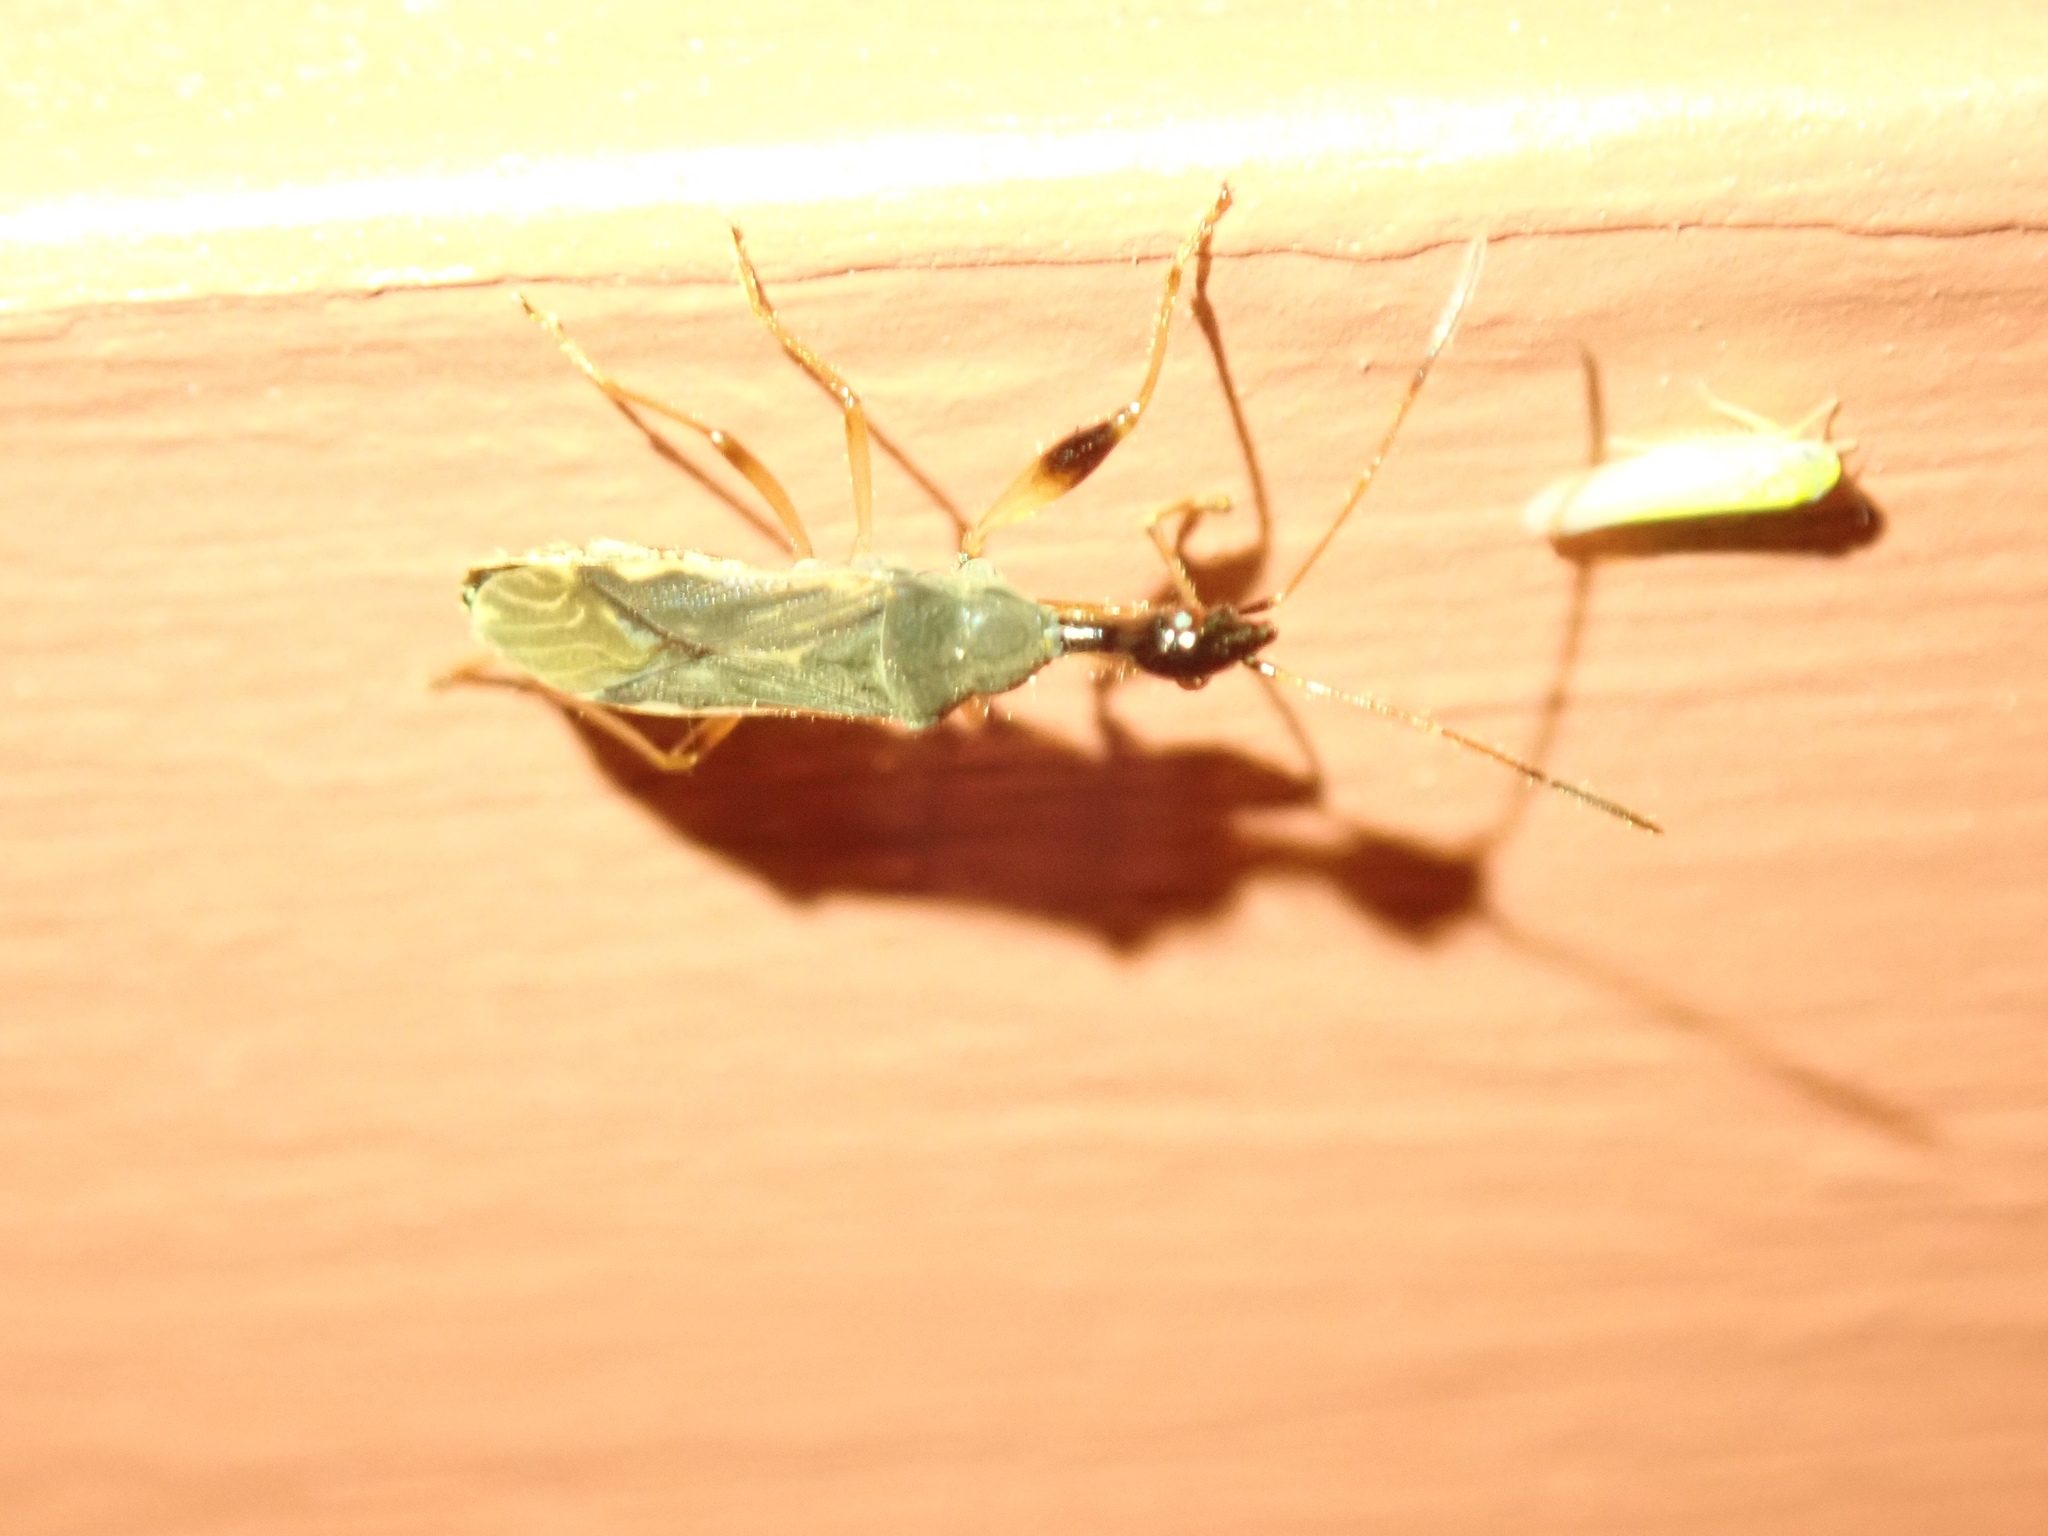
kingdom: Animalia
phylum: Arthropoda
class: Insecta
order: Hemiptera
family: Rhyparochromidae
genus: Myodocha
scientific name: Myodocha serripes
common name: Long-necked seed bug
